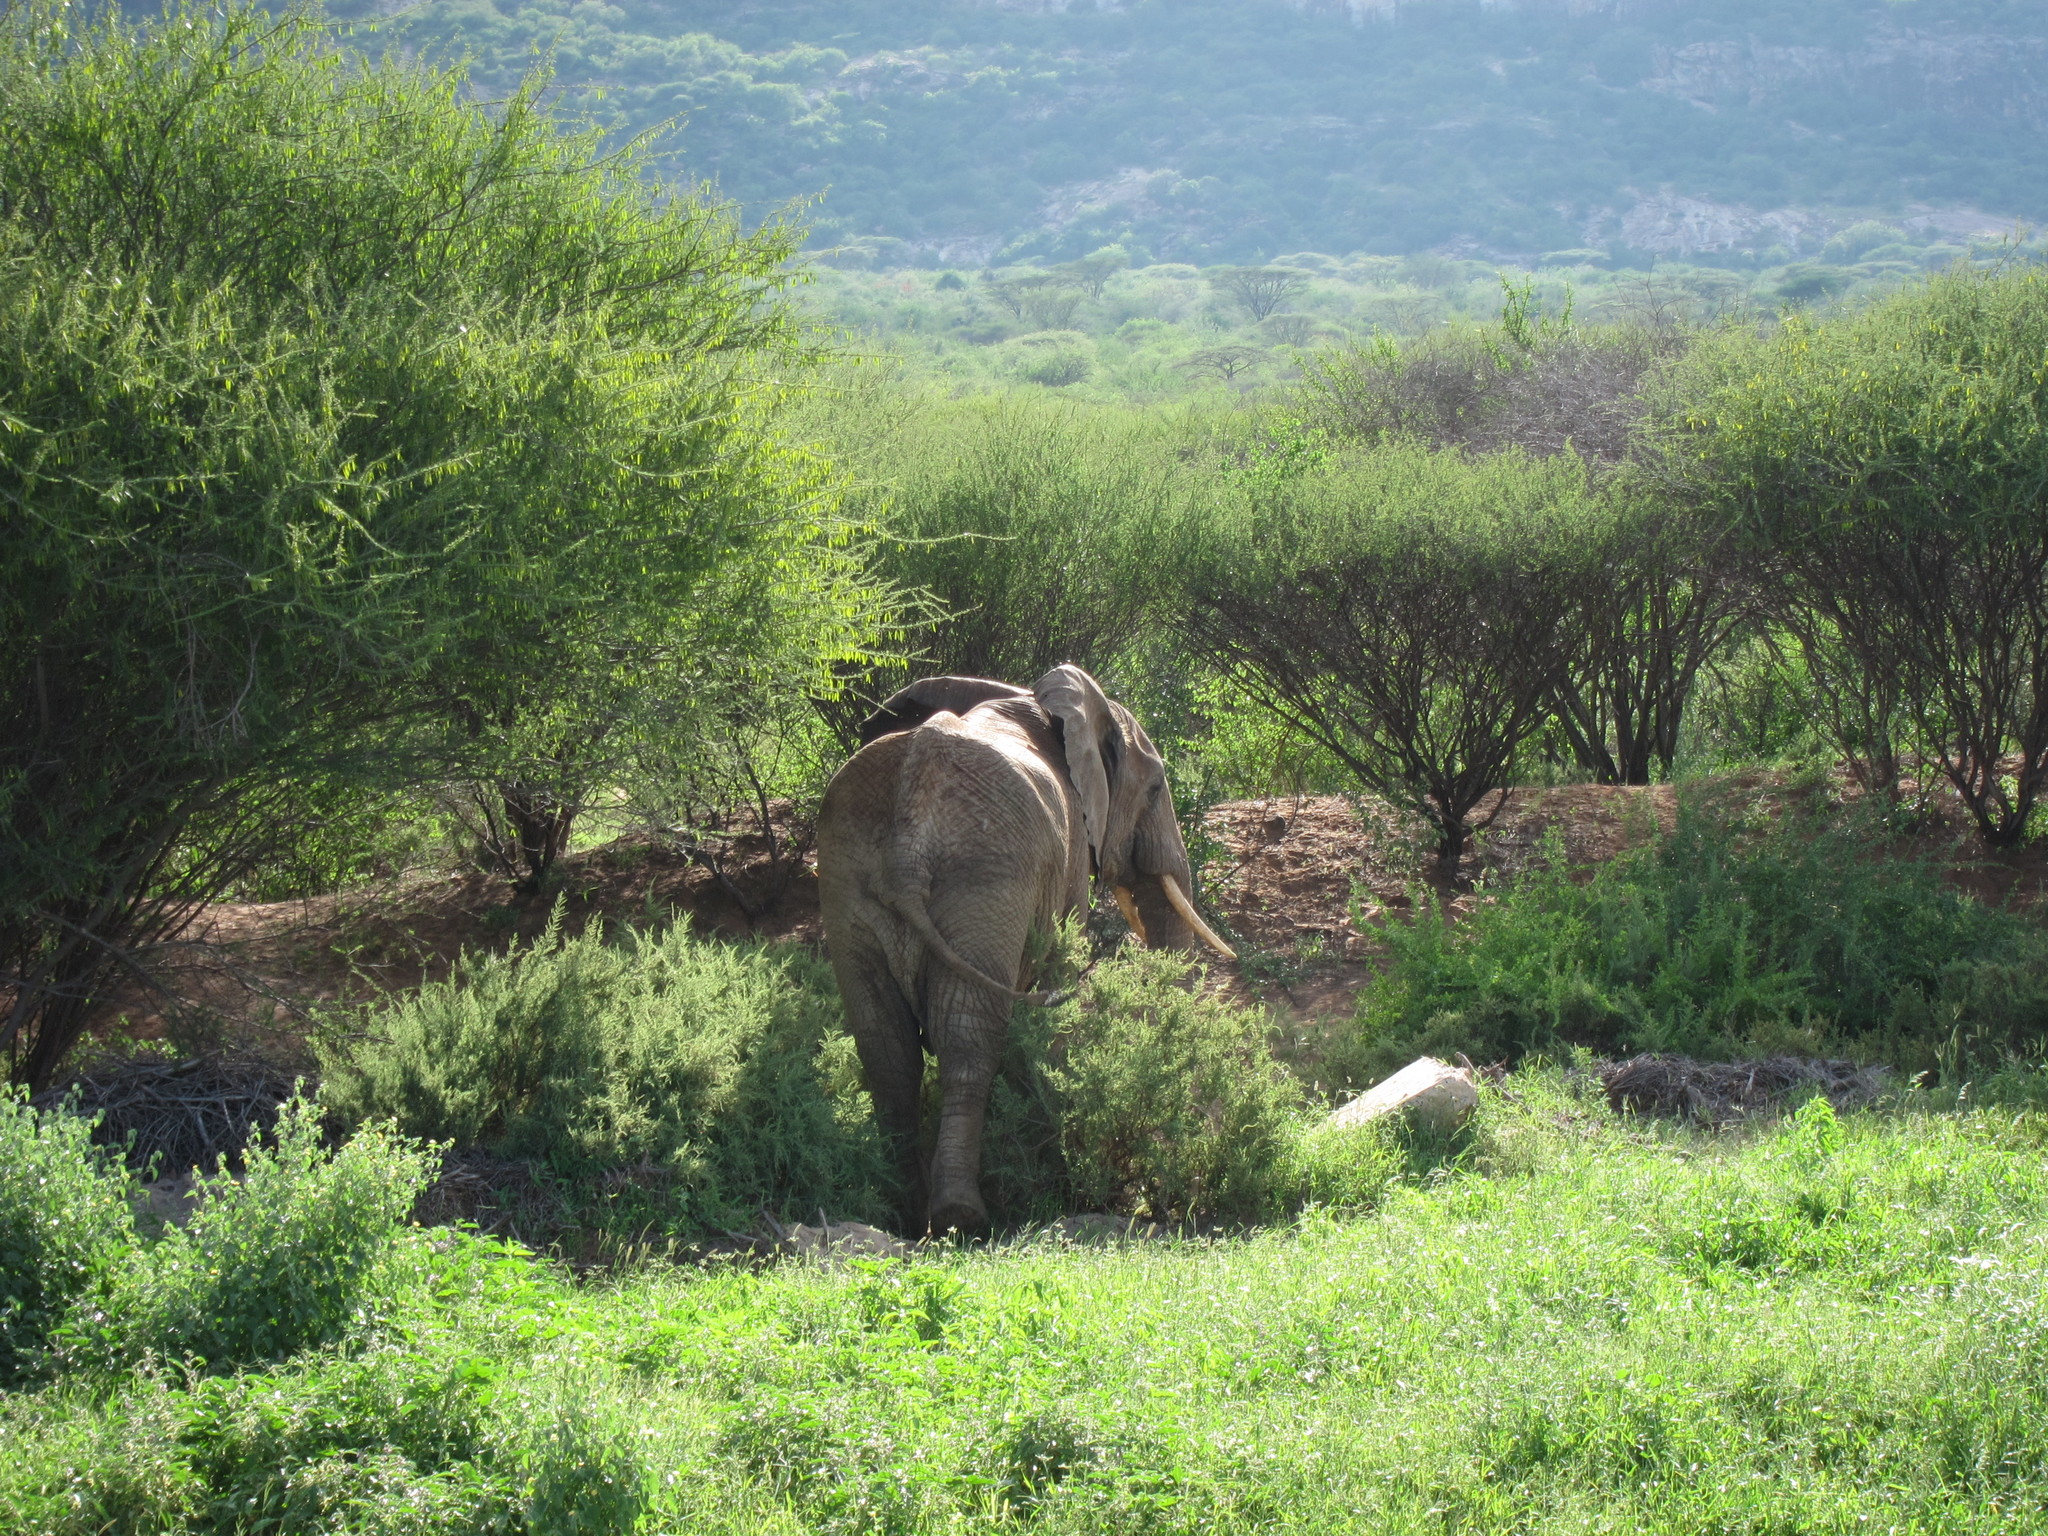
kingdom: Animalia
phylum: Chordata
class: Mammalia
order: Proboscidea
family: Elephantidae
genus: Loxodonta
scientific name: Loxodonta africana
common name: African elephant
